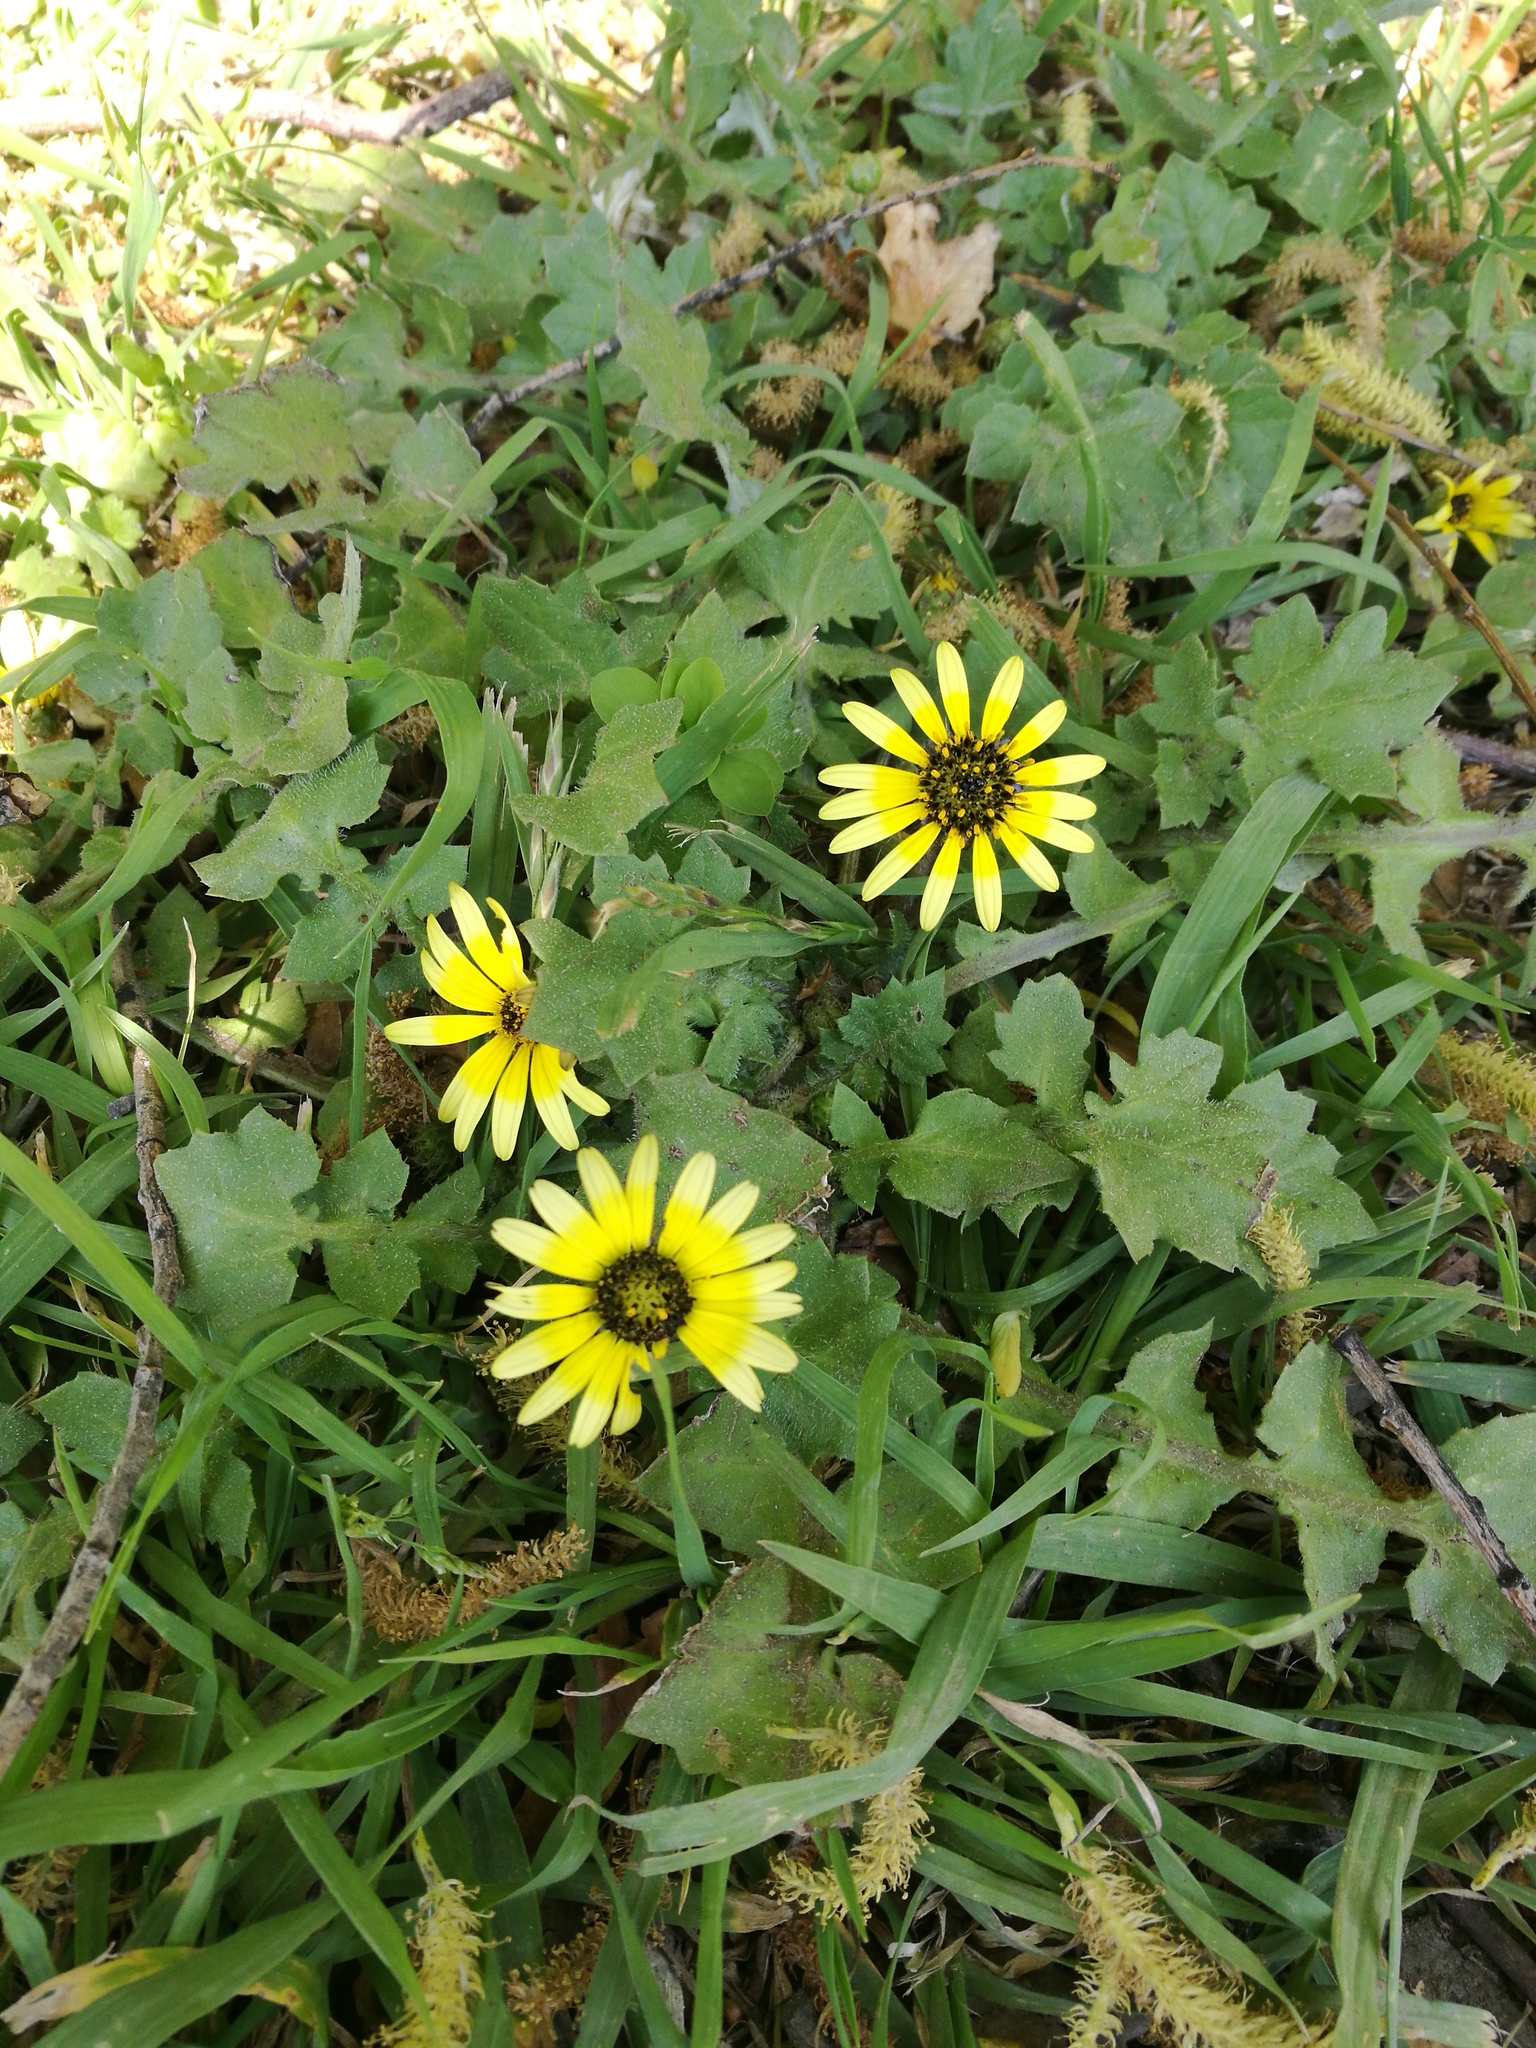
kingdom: Plantae
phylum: Tracheophyta
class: Magnoliopsida
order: Asterales
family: Asteraceae
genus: Arctotheca
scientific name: Arctotheca calendula
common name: Capeweed
